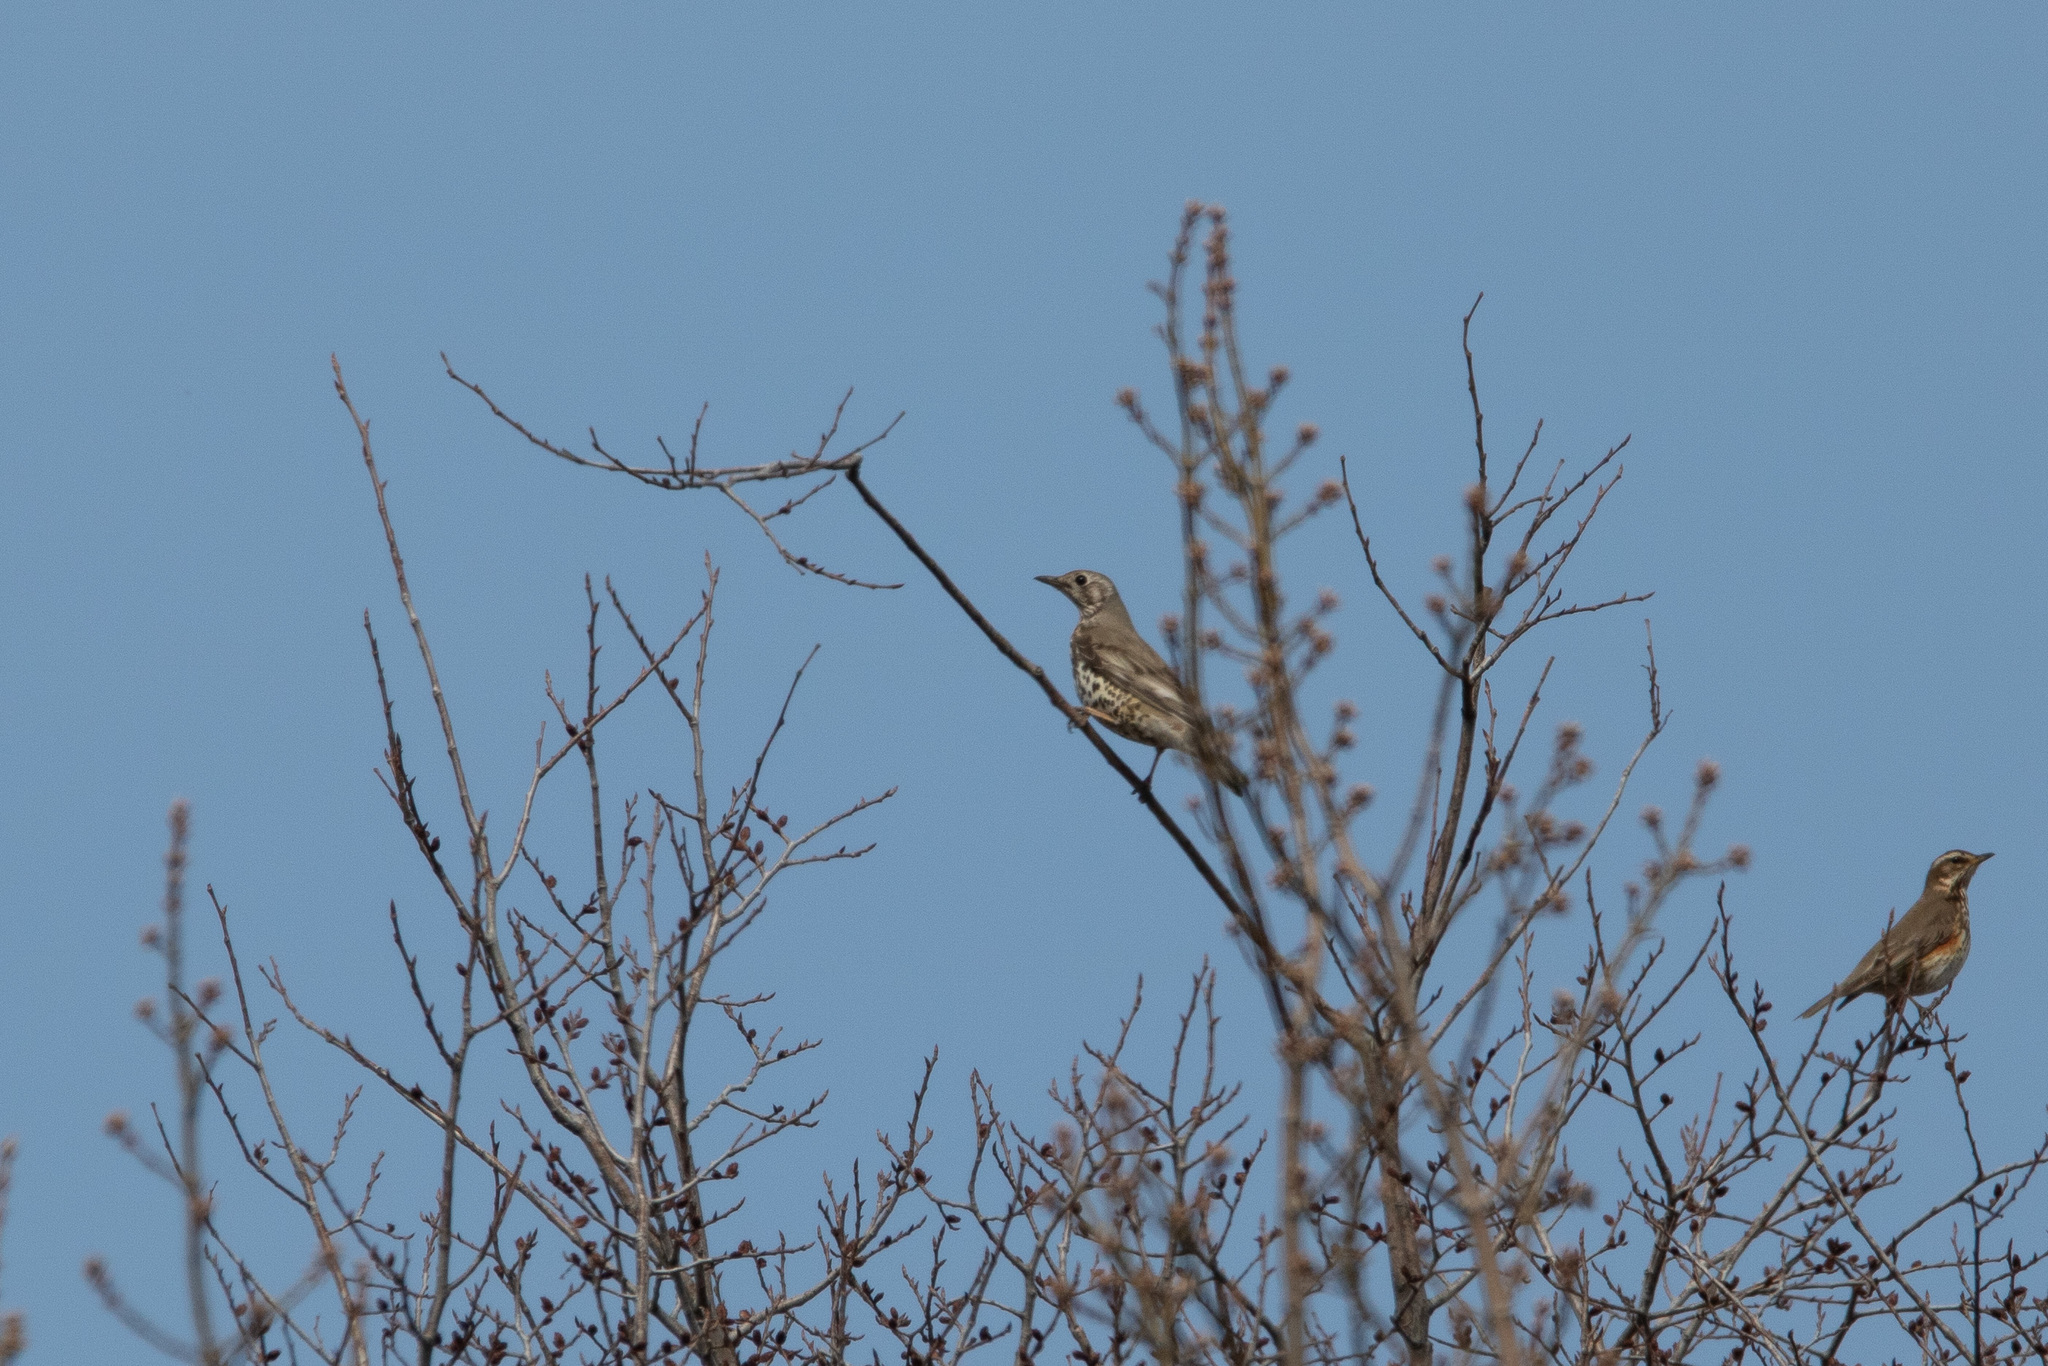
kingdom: Animalia
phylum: Chordata
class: Aves
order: Passeriformes
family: Turdidae
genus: Turdus
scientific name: Turdus viscivorus
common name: Mistle thrush
